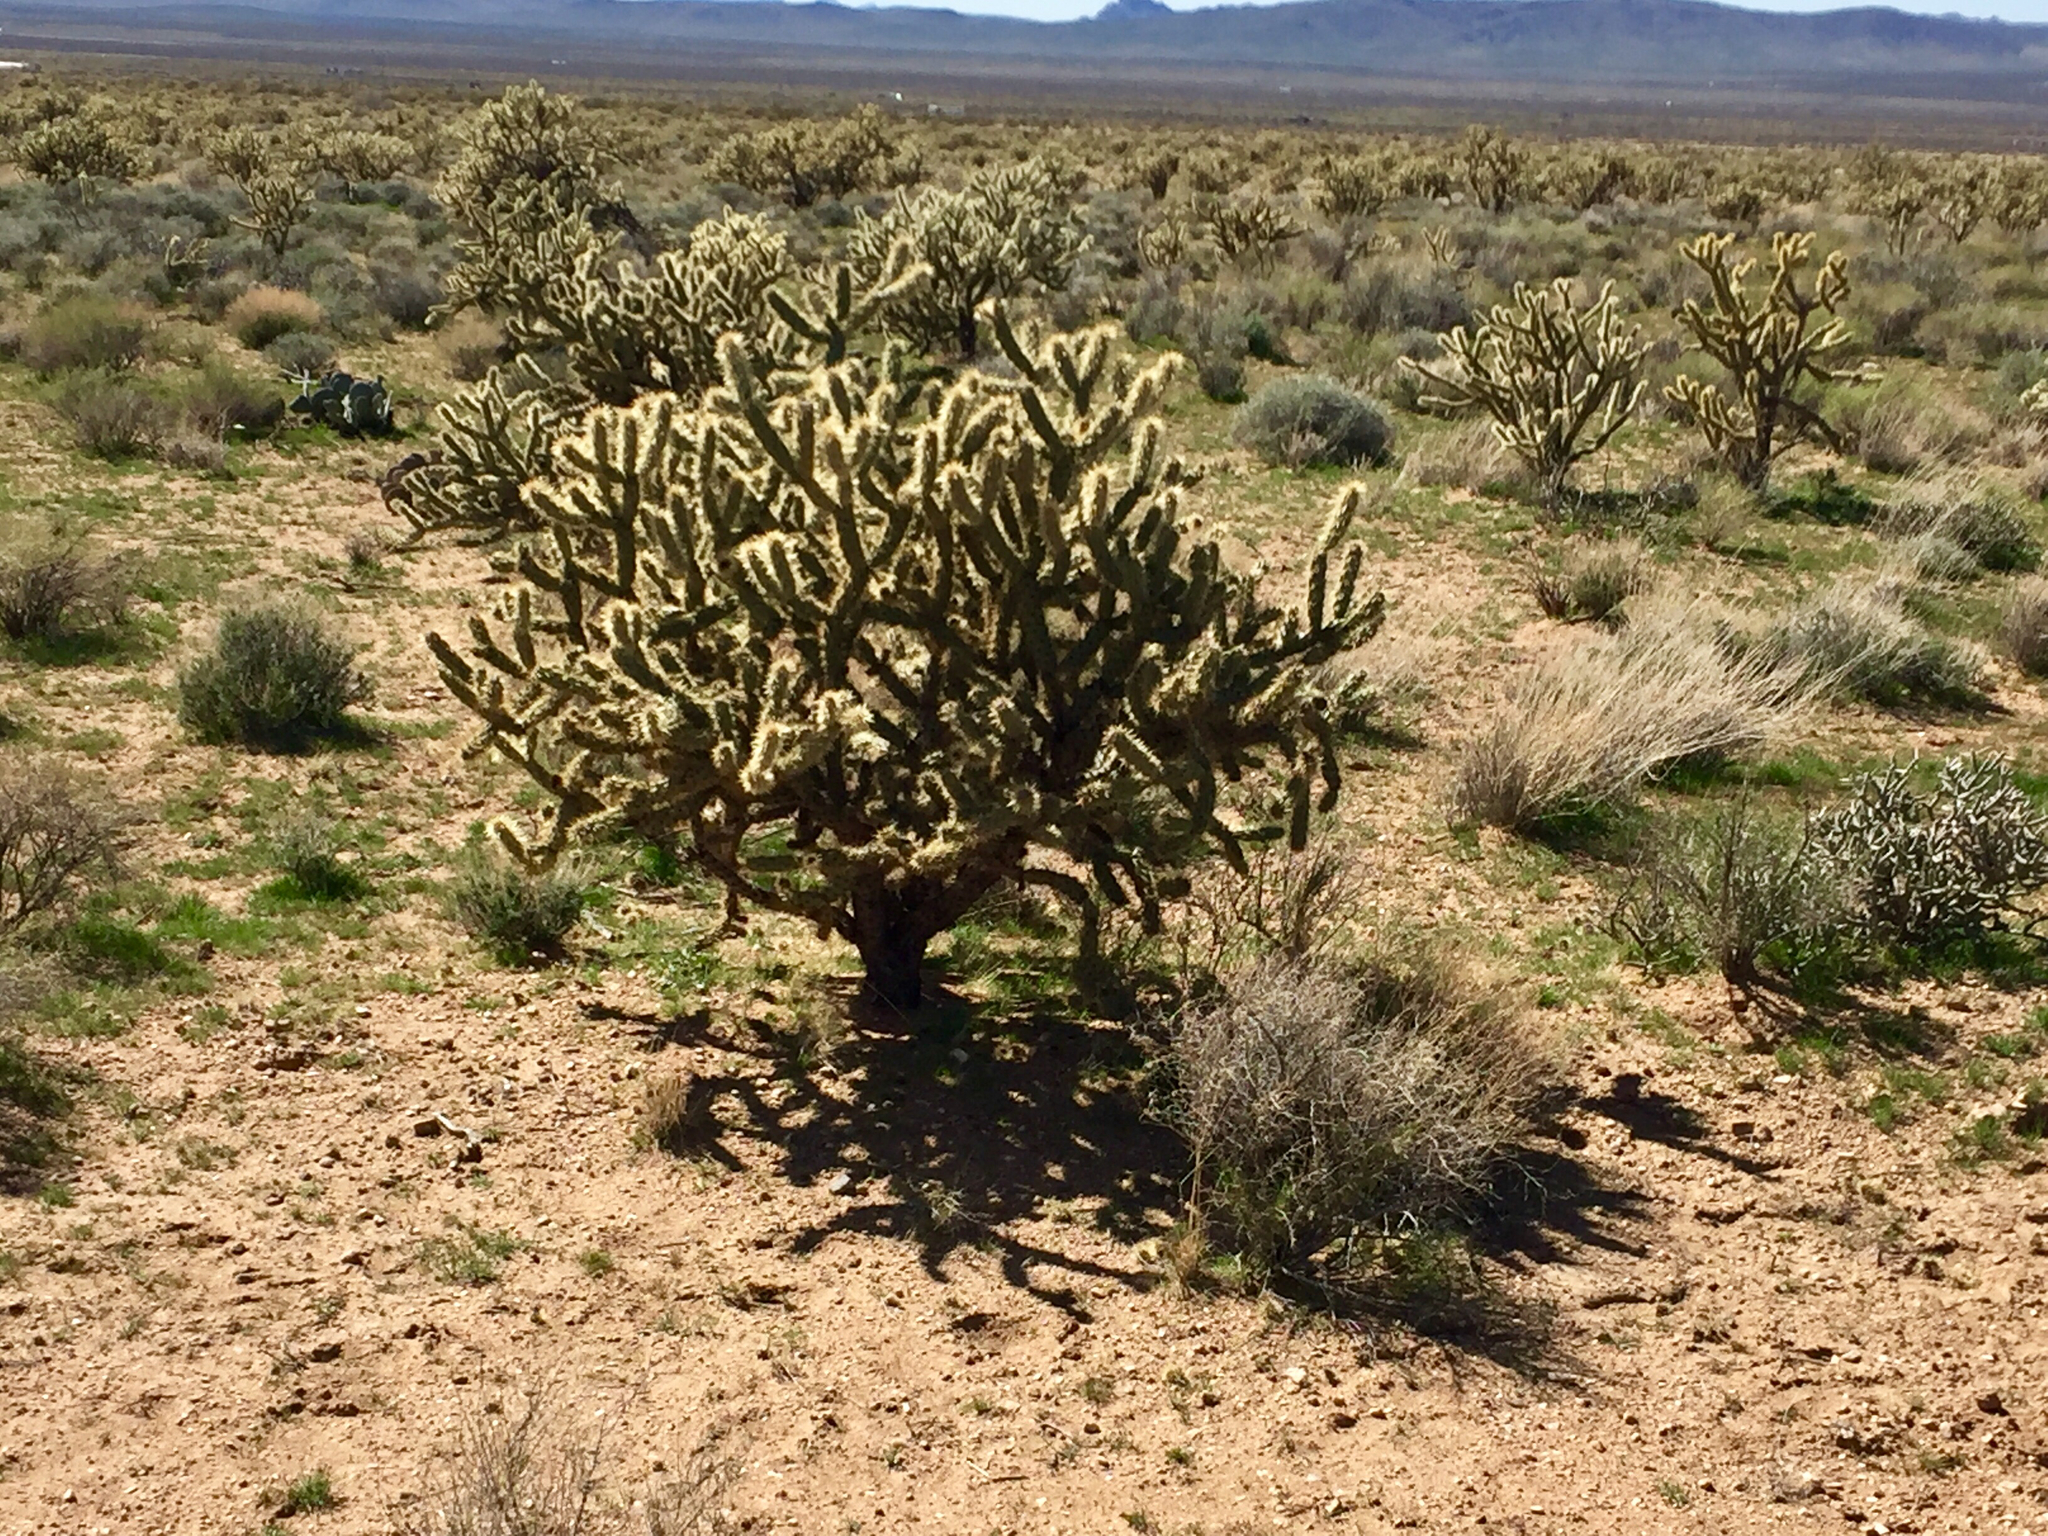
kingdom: Plantae
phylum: Tracheophyta
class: Magnoliopsida
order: Caryophyllales
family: Cactaceae
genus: Cylindropuntia
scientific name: Cylindropuntia acanthocarpa
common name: Buckhorn cholla
